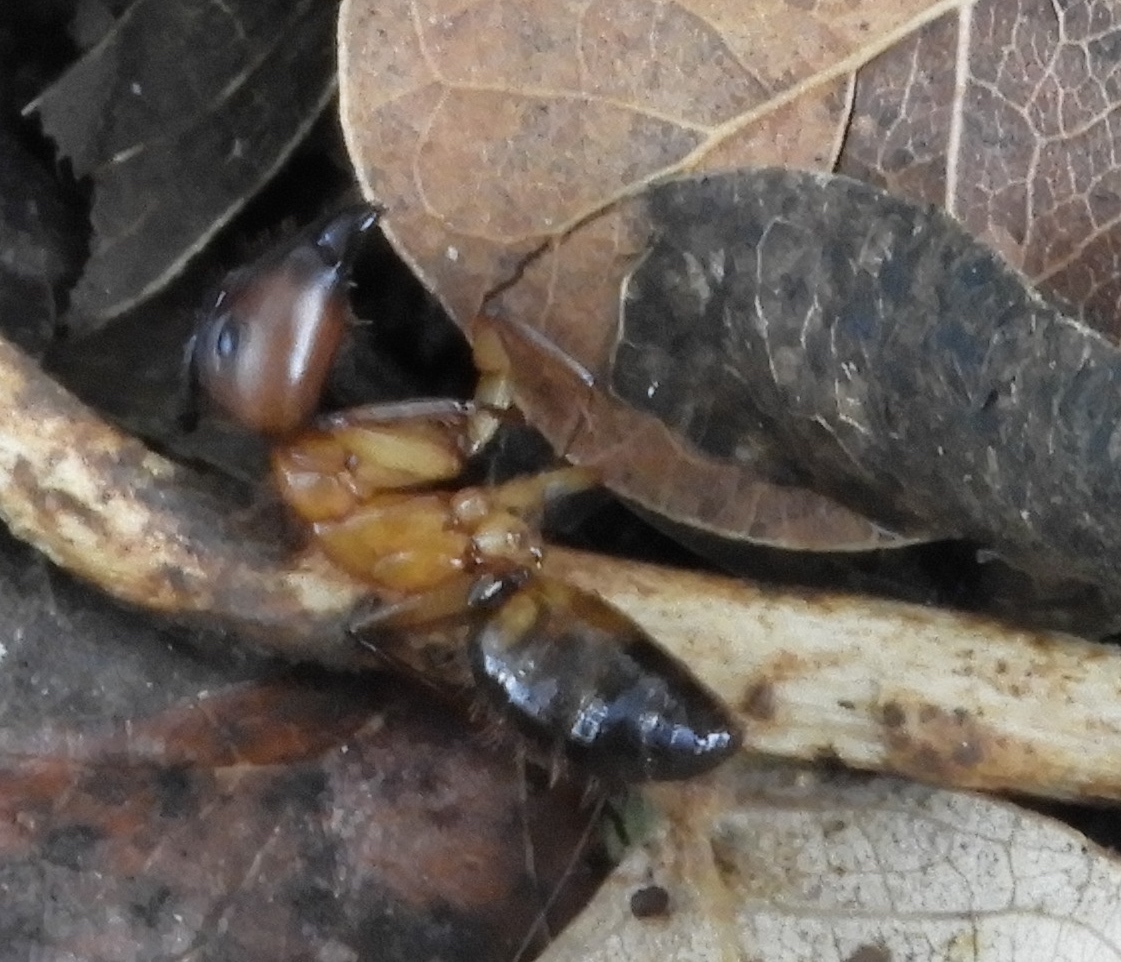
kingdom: Animalia
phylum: Arthropoda
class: Insecta
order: Hymenoptera
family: Formicidae
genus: Camponotus
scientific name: Camponotus
